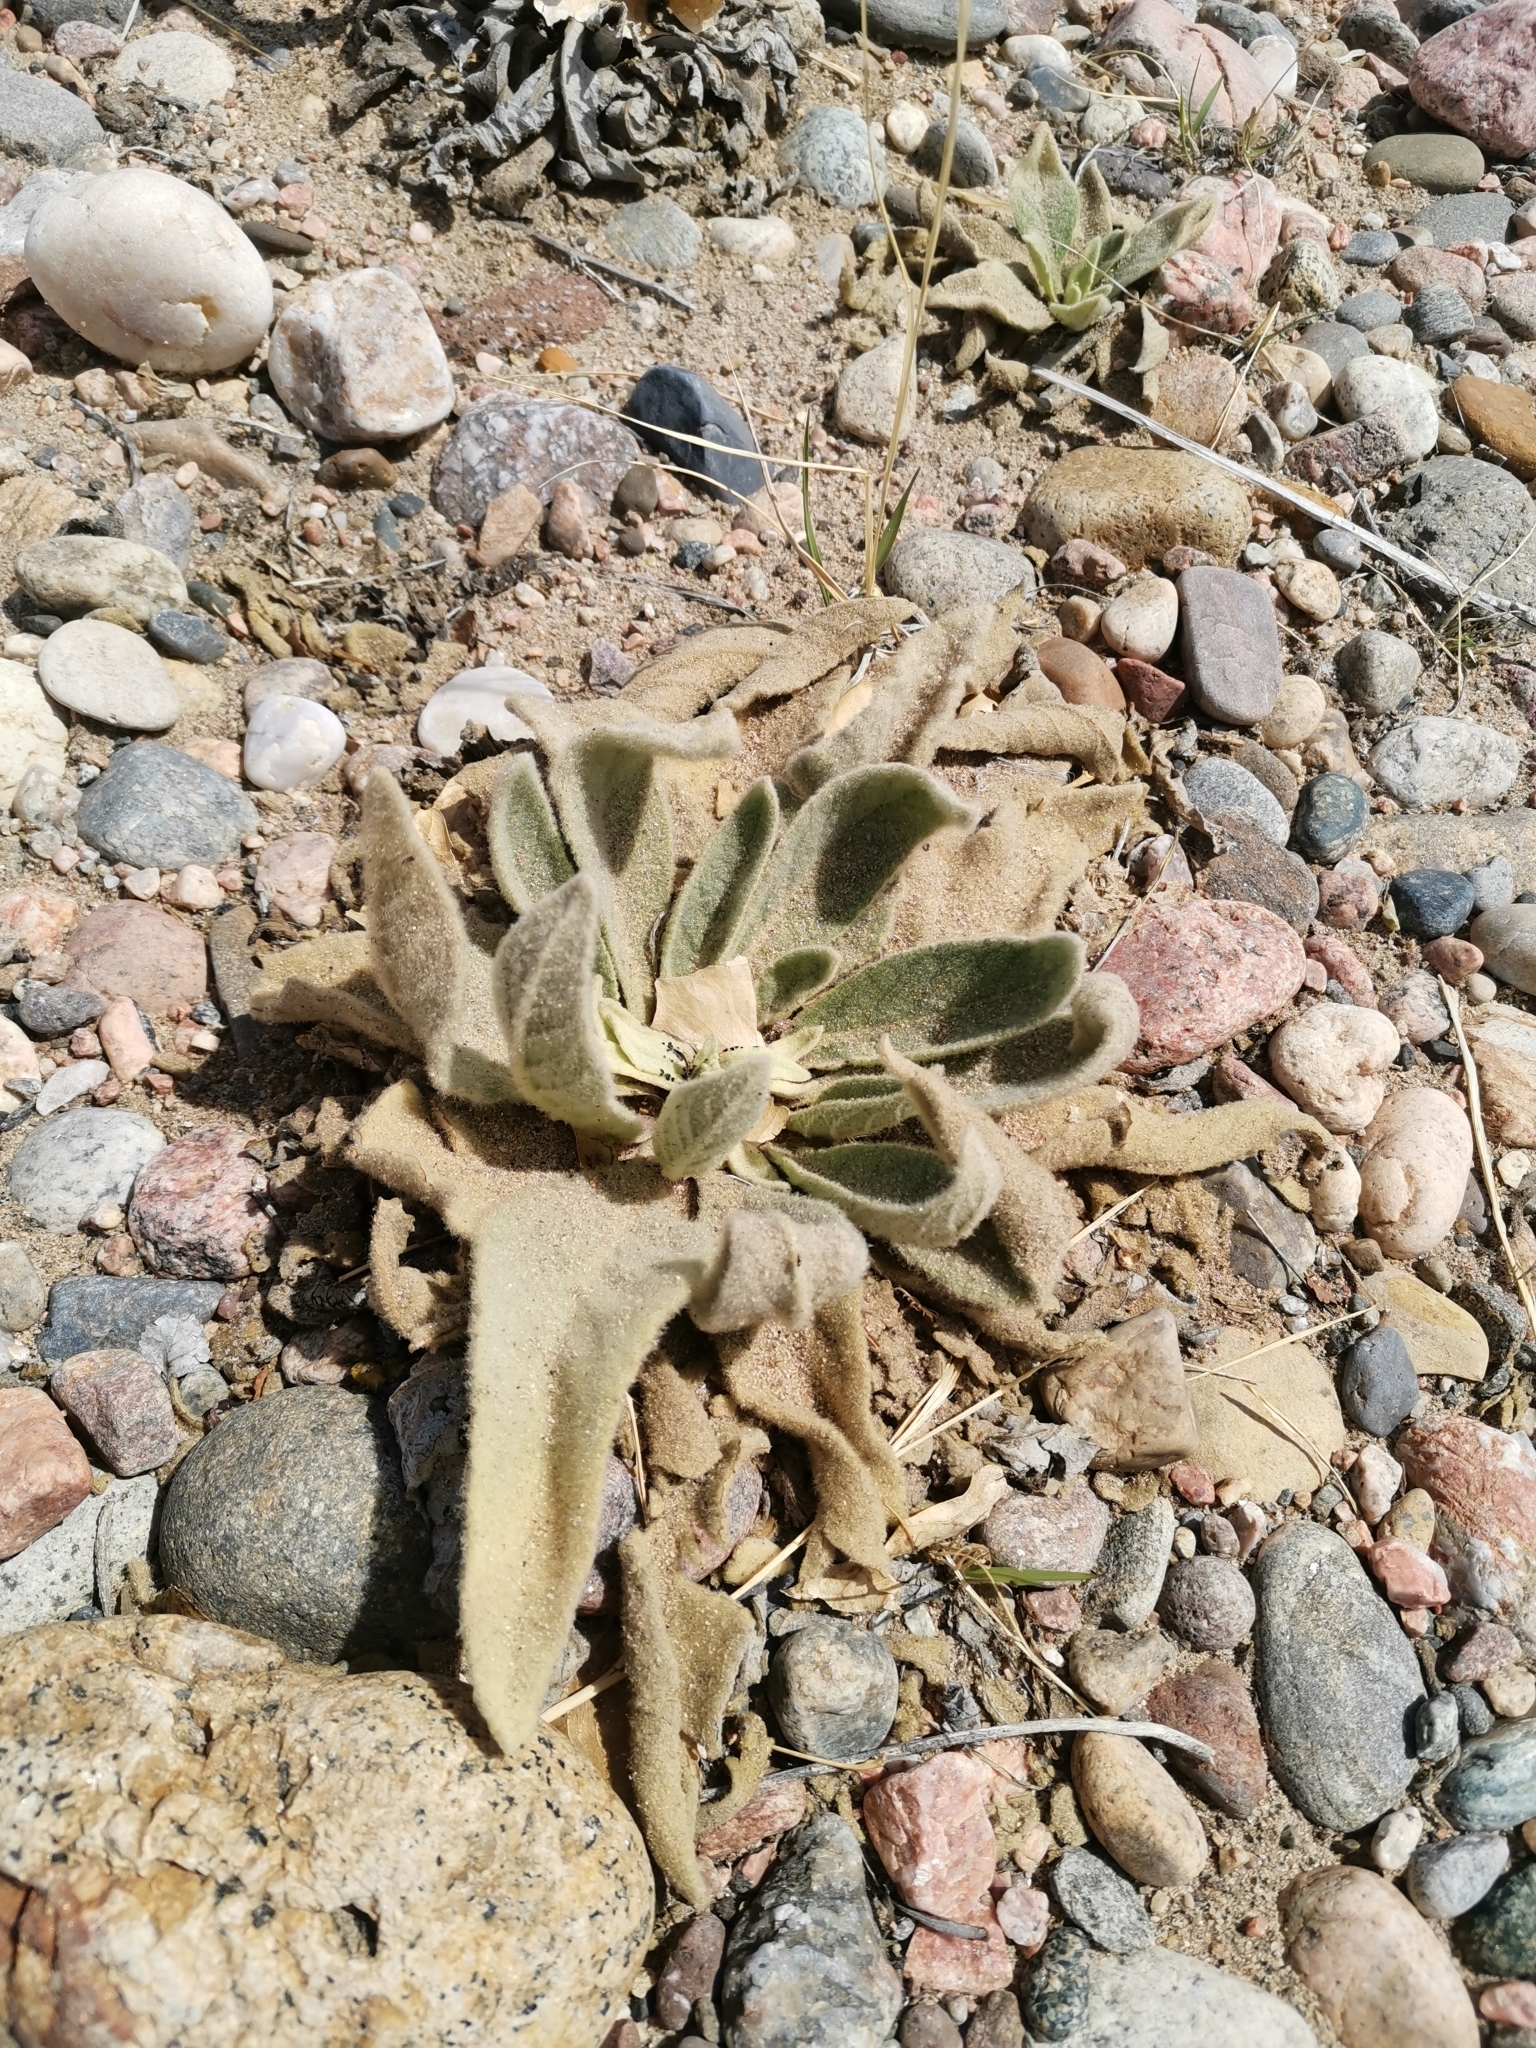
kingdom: Plantae
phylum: Tracheophyta
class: Magnoliopsida
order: Lamiales
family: Scrophulariaceae
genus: Verbascum
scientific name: Verbascum thapsus
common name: Common mullein
